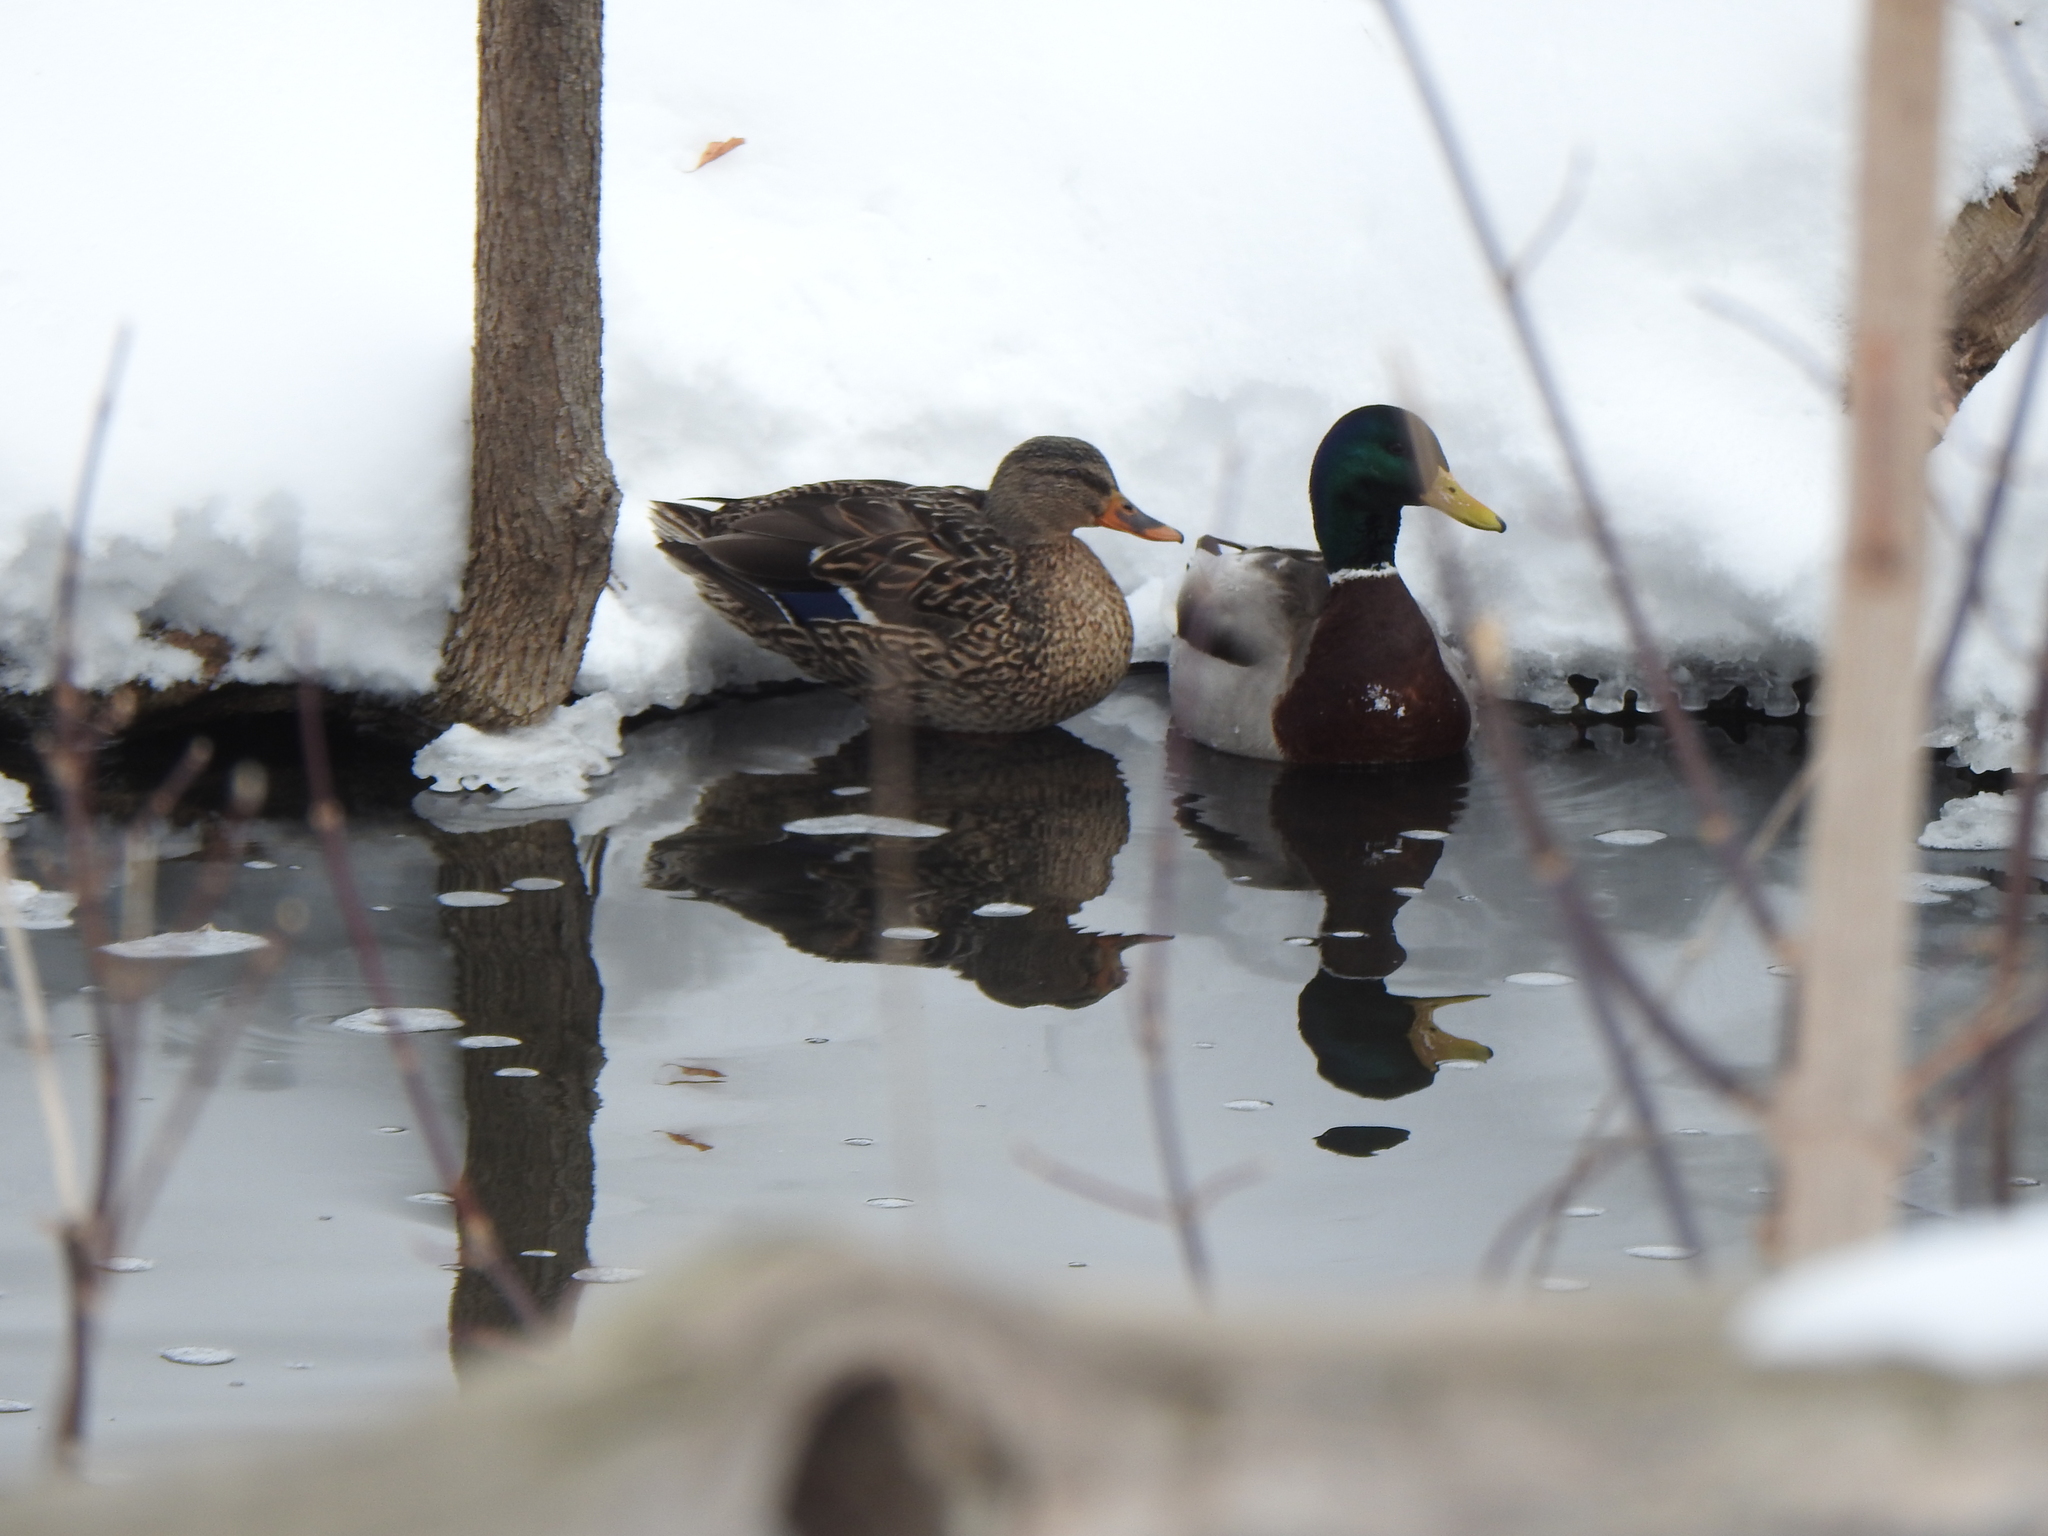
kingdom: Animalia
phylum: Chordata
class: Aves
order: Anseriformes
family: Anatidae
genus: Anas
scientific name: Anas platyrhynchos
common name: Mallard
